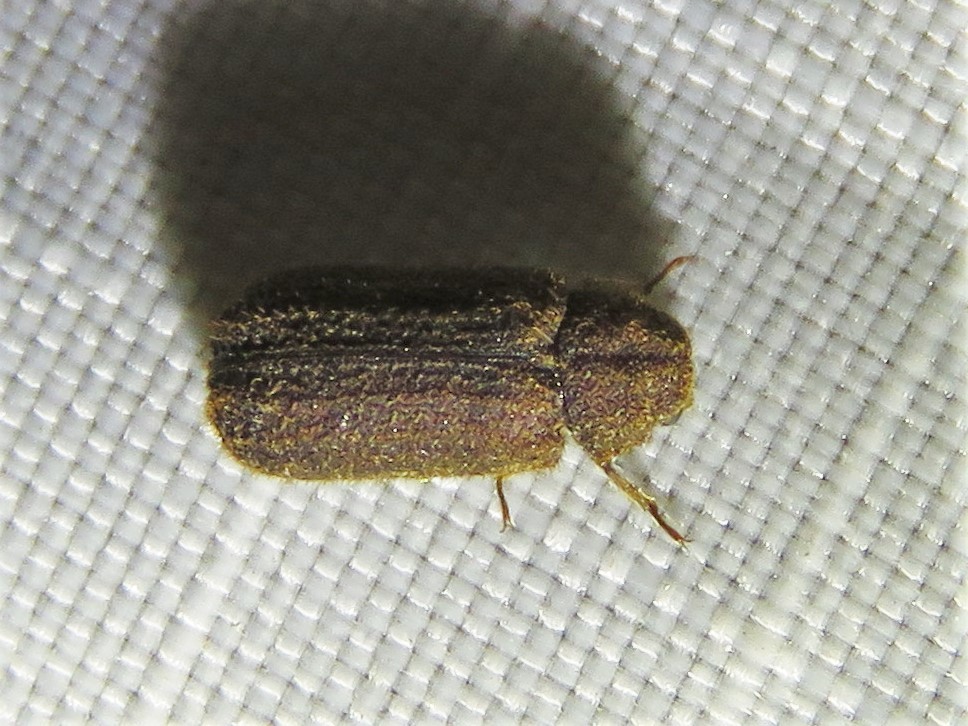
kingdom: Animalia
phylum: Arthropoda
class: Insecta
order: Coleoptera
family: Bostrichidae
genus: Endecatomus
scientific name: Endecatomus dorsalis
